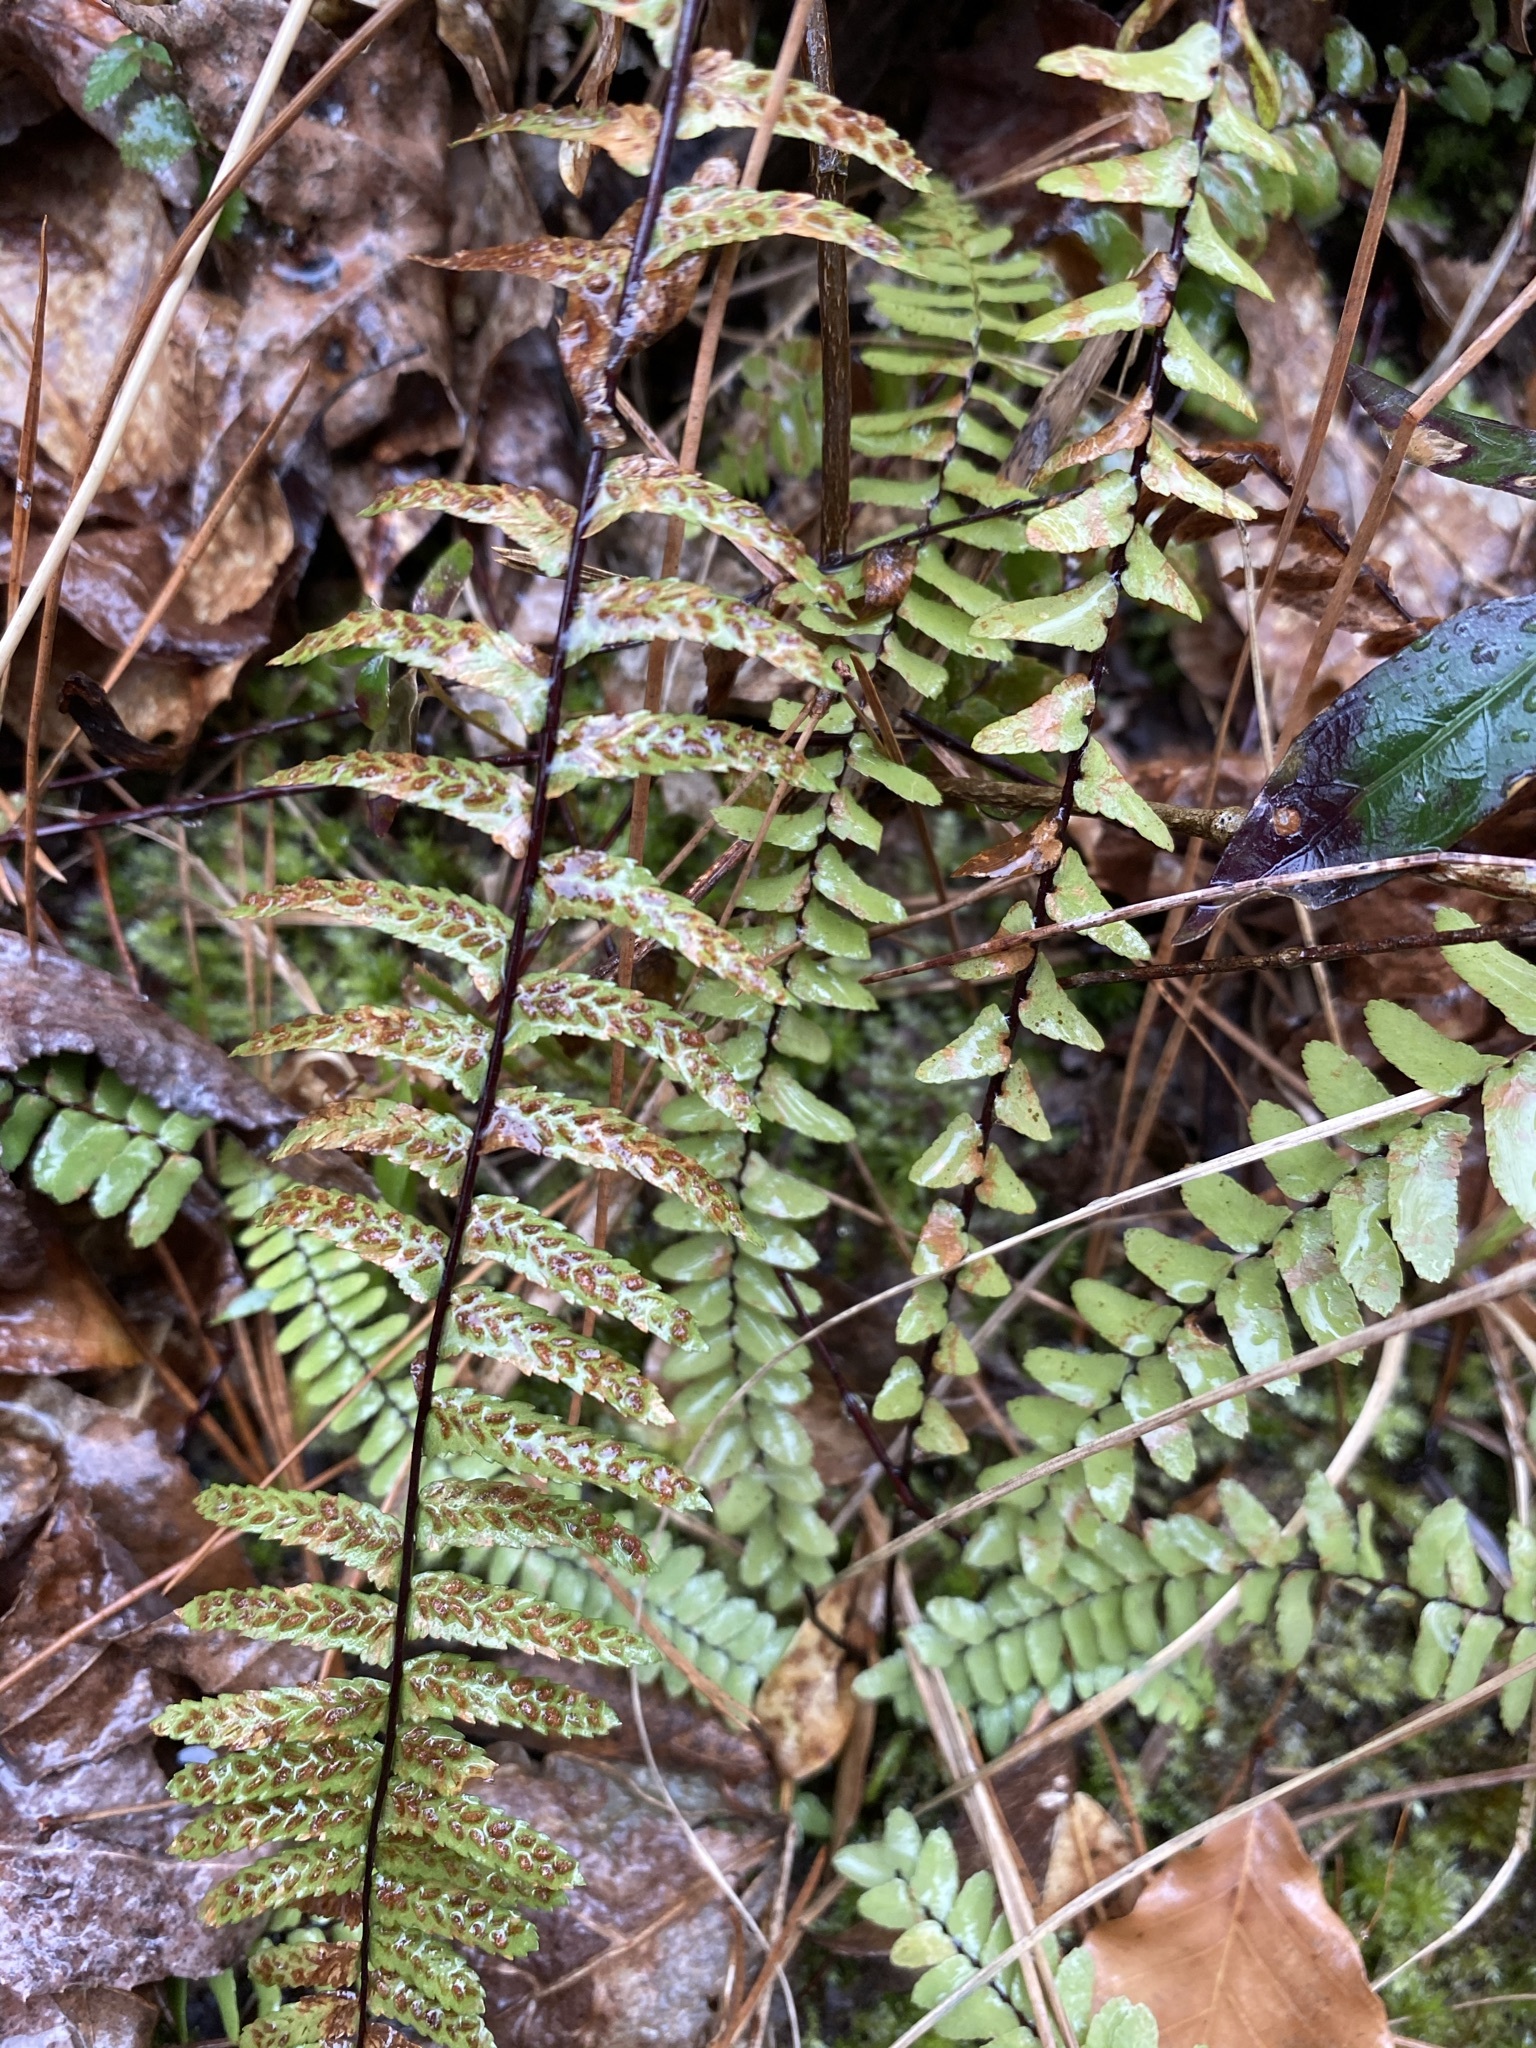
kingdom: Plantae
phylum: Tracheophyta
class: Polypodiopsida
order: Polypodiales
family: Aspleniaceae
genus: Asplenium
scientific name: Asplenium platyneuron
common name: Ebony spleenwort
